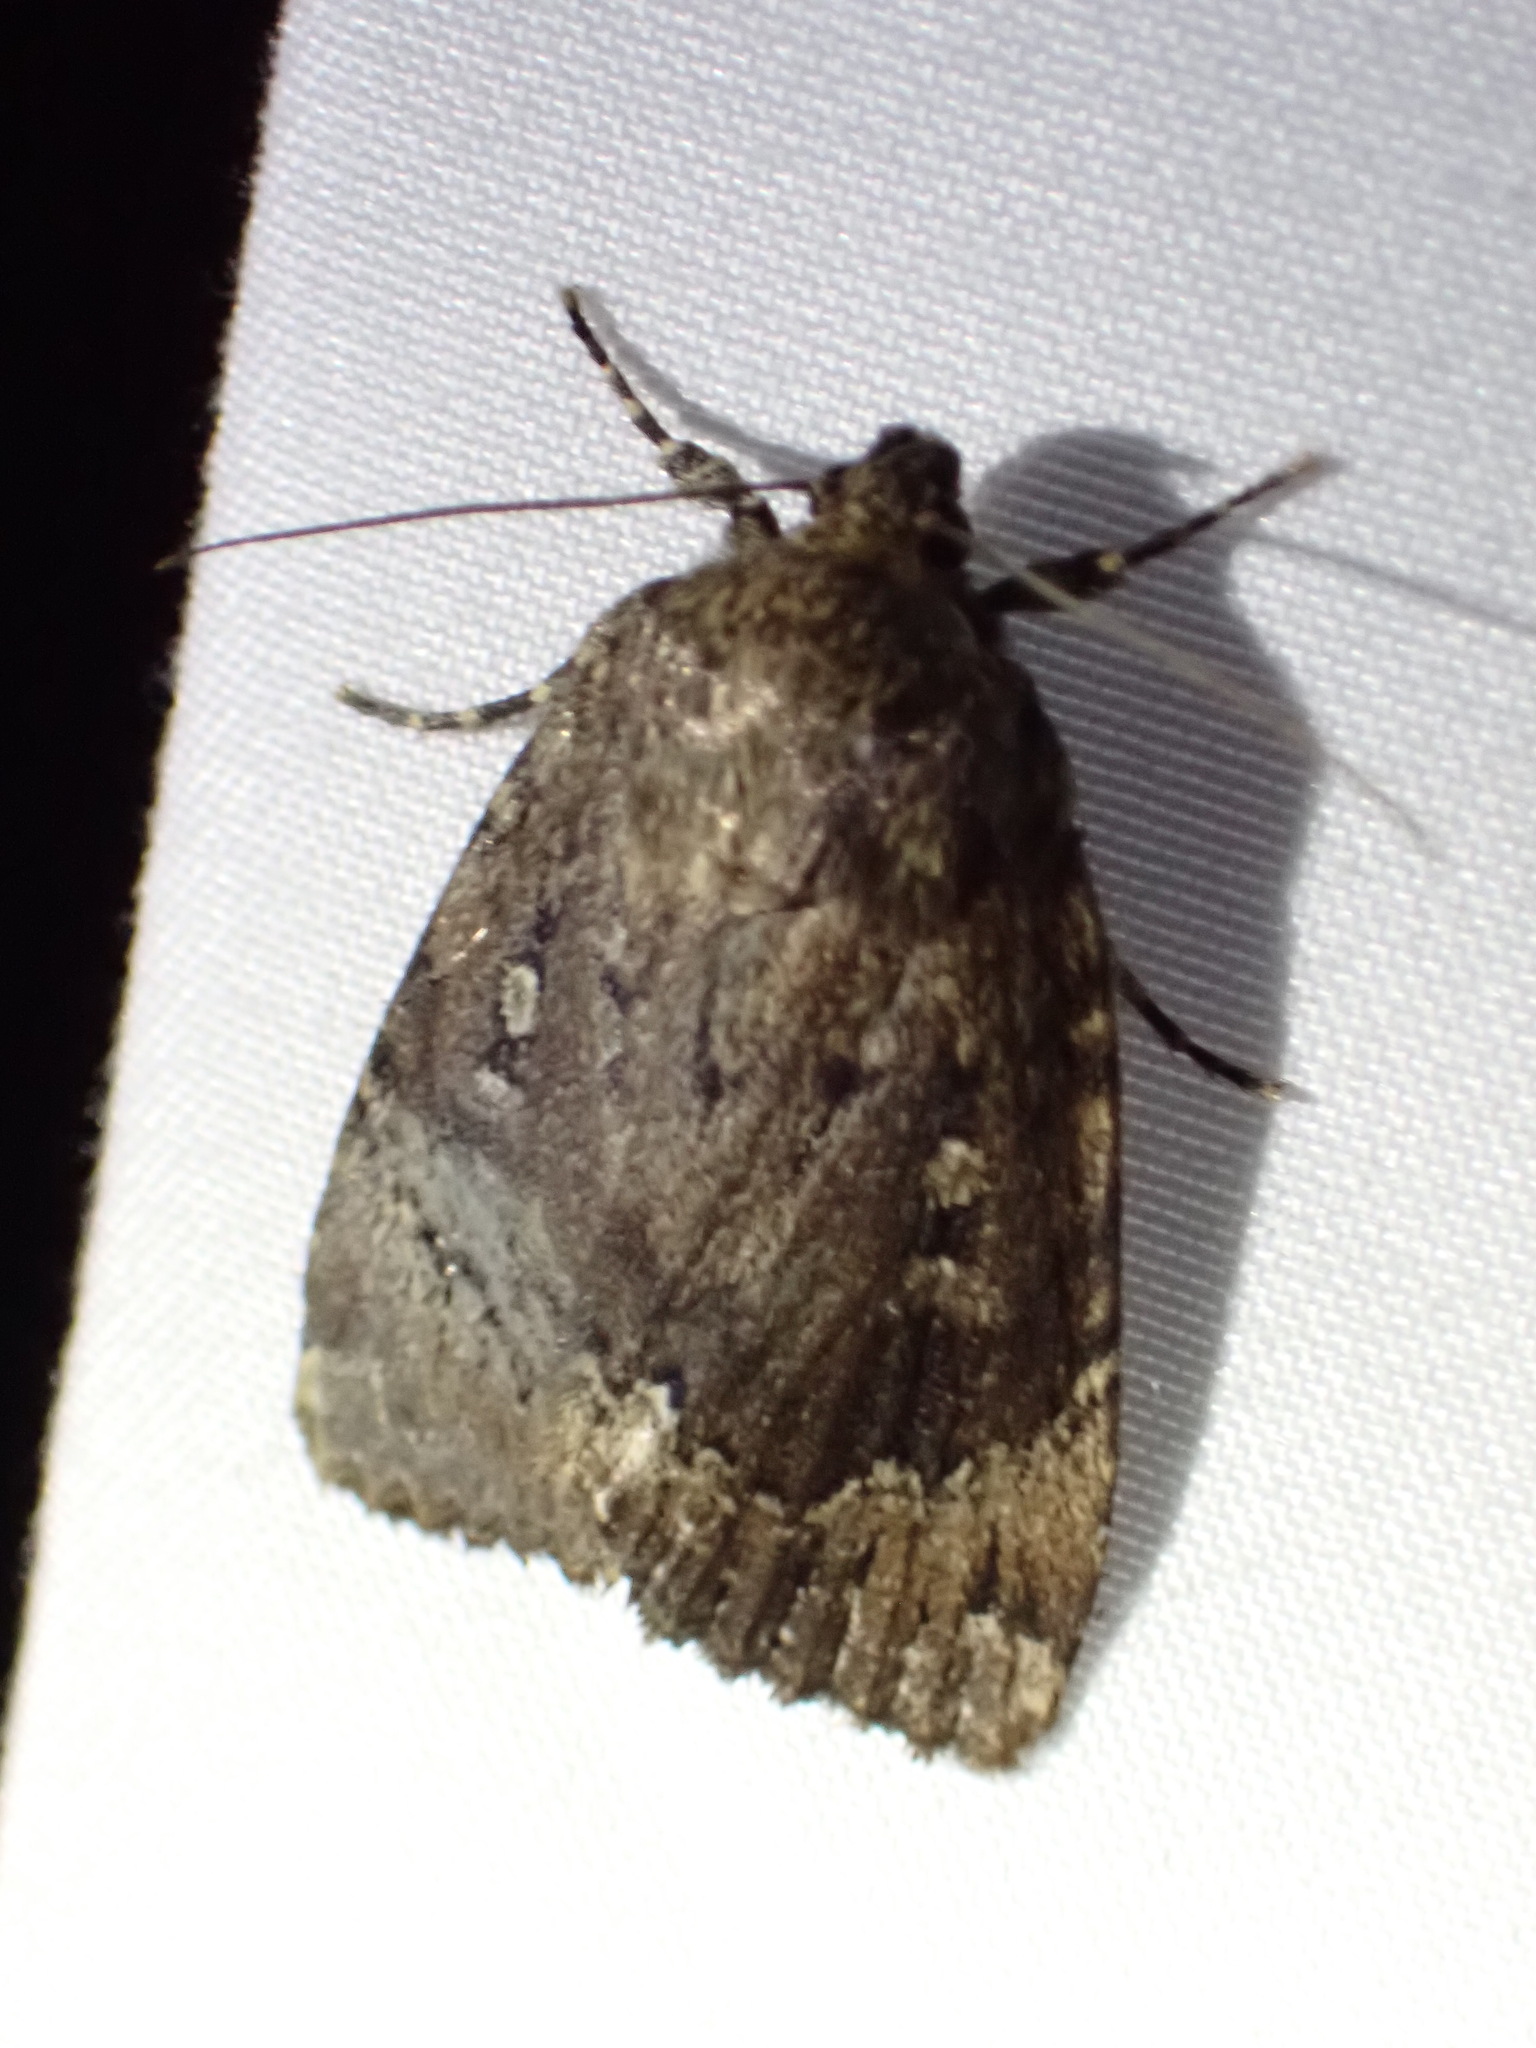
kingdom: Animalia
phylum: Arthropoda
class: Insecta
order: Lepidoptera
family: Noctuidae
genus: Amphipyra
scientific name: Amphipyra pyramidoides
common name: American copper underwing
